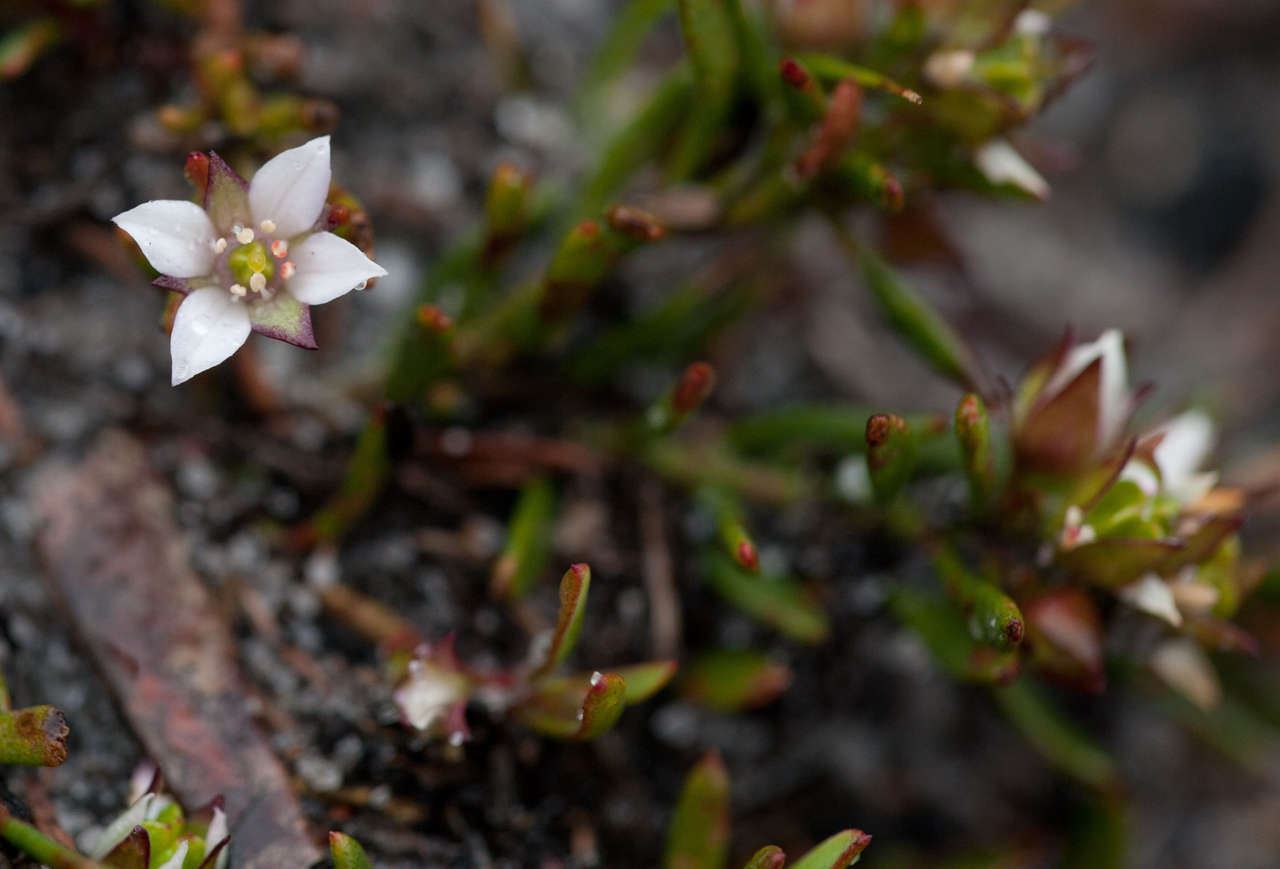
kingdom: Plantae
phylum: Tracheophyta
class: Magnoliopsida
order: Sapindales
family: Rutaceae
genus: Boronia
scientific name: Boronia parviflora
